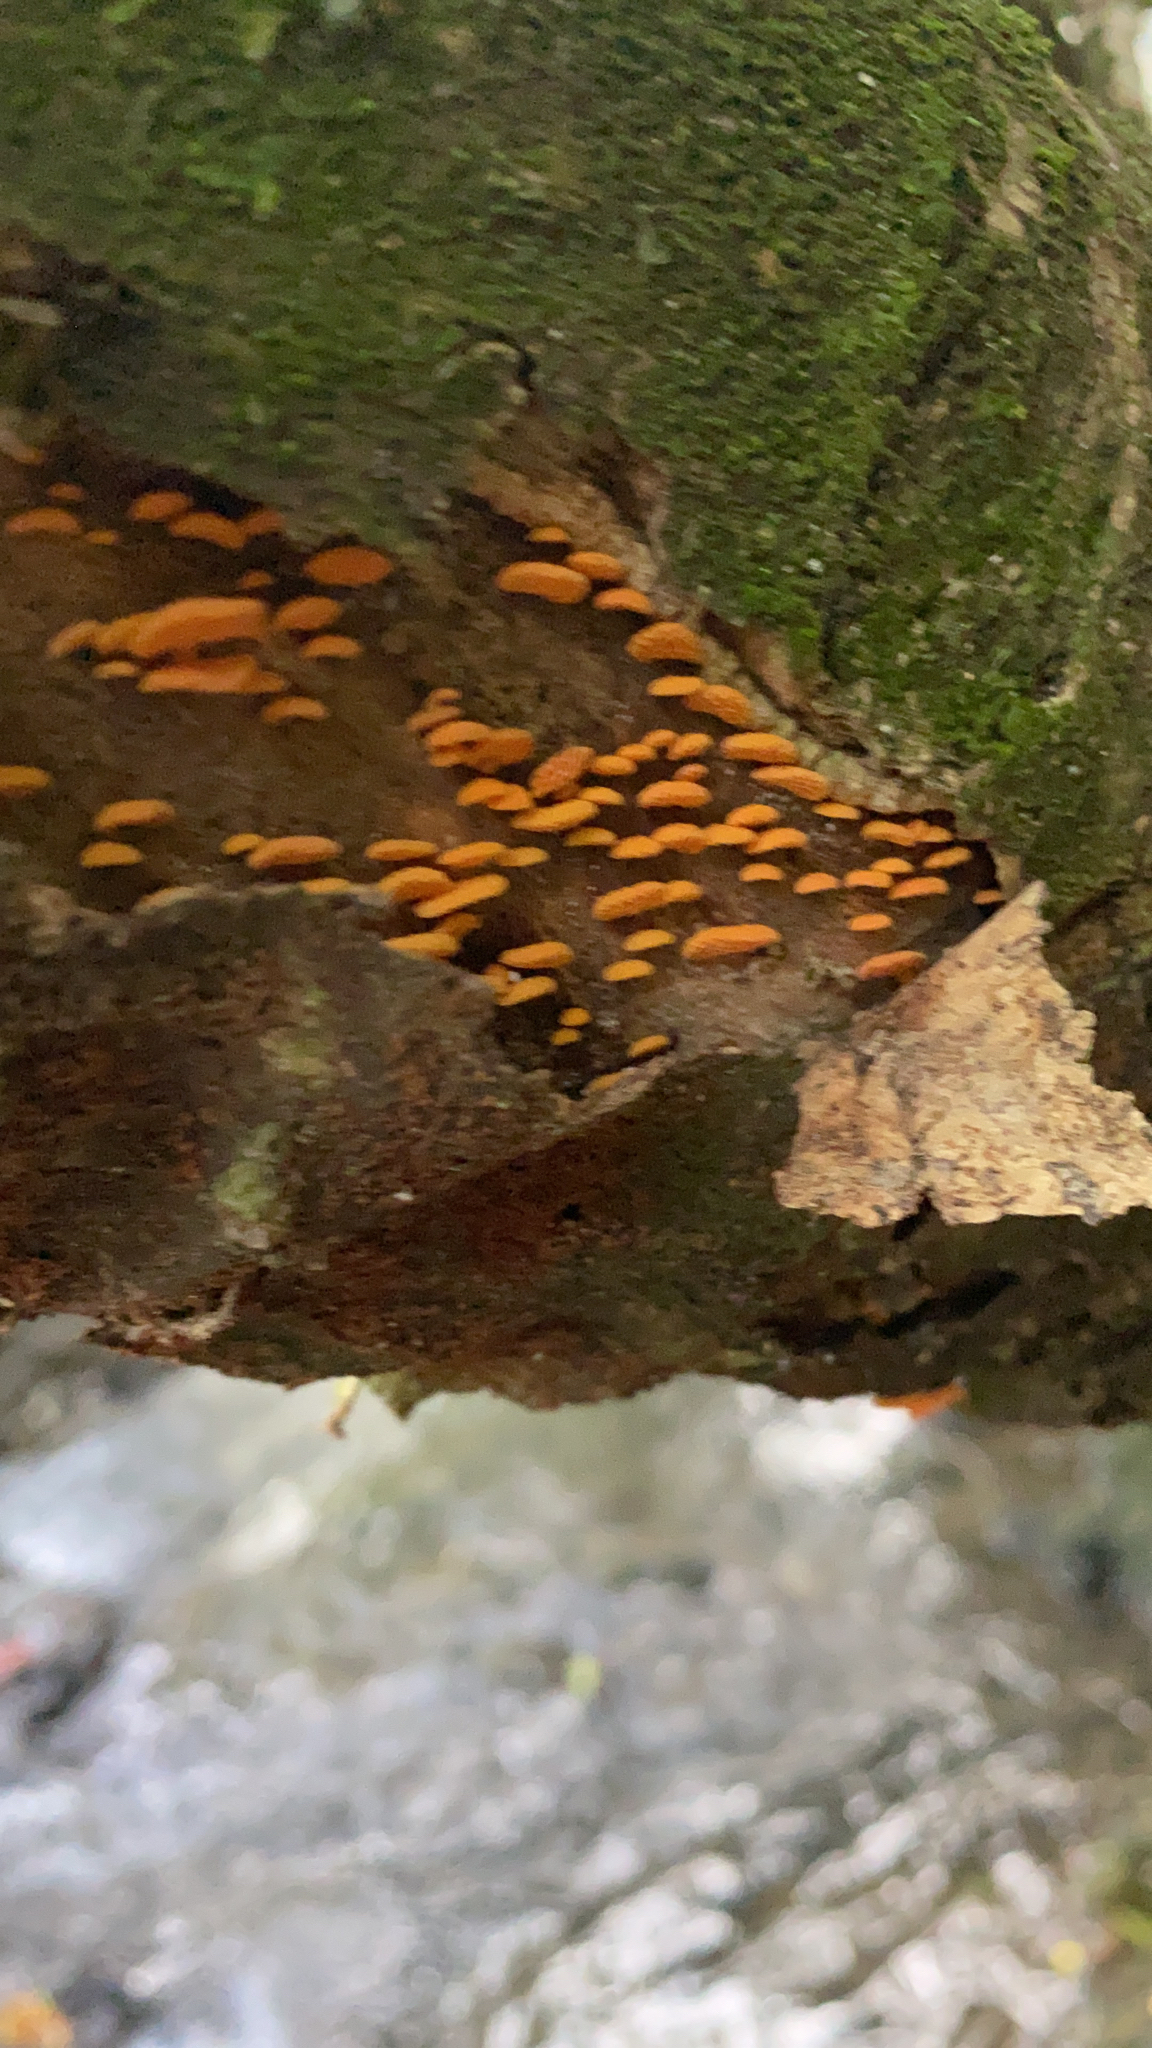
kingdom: Fungi
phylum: Basidiomycota
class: Agaricomycetes
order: Agaricales
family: Mycenaceae
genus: Favolaschia
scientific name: Favolaschia claudopus
